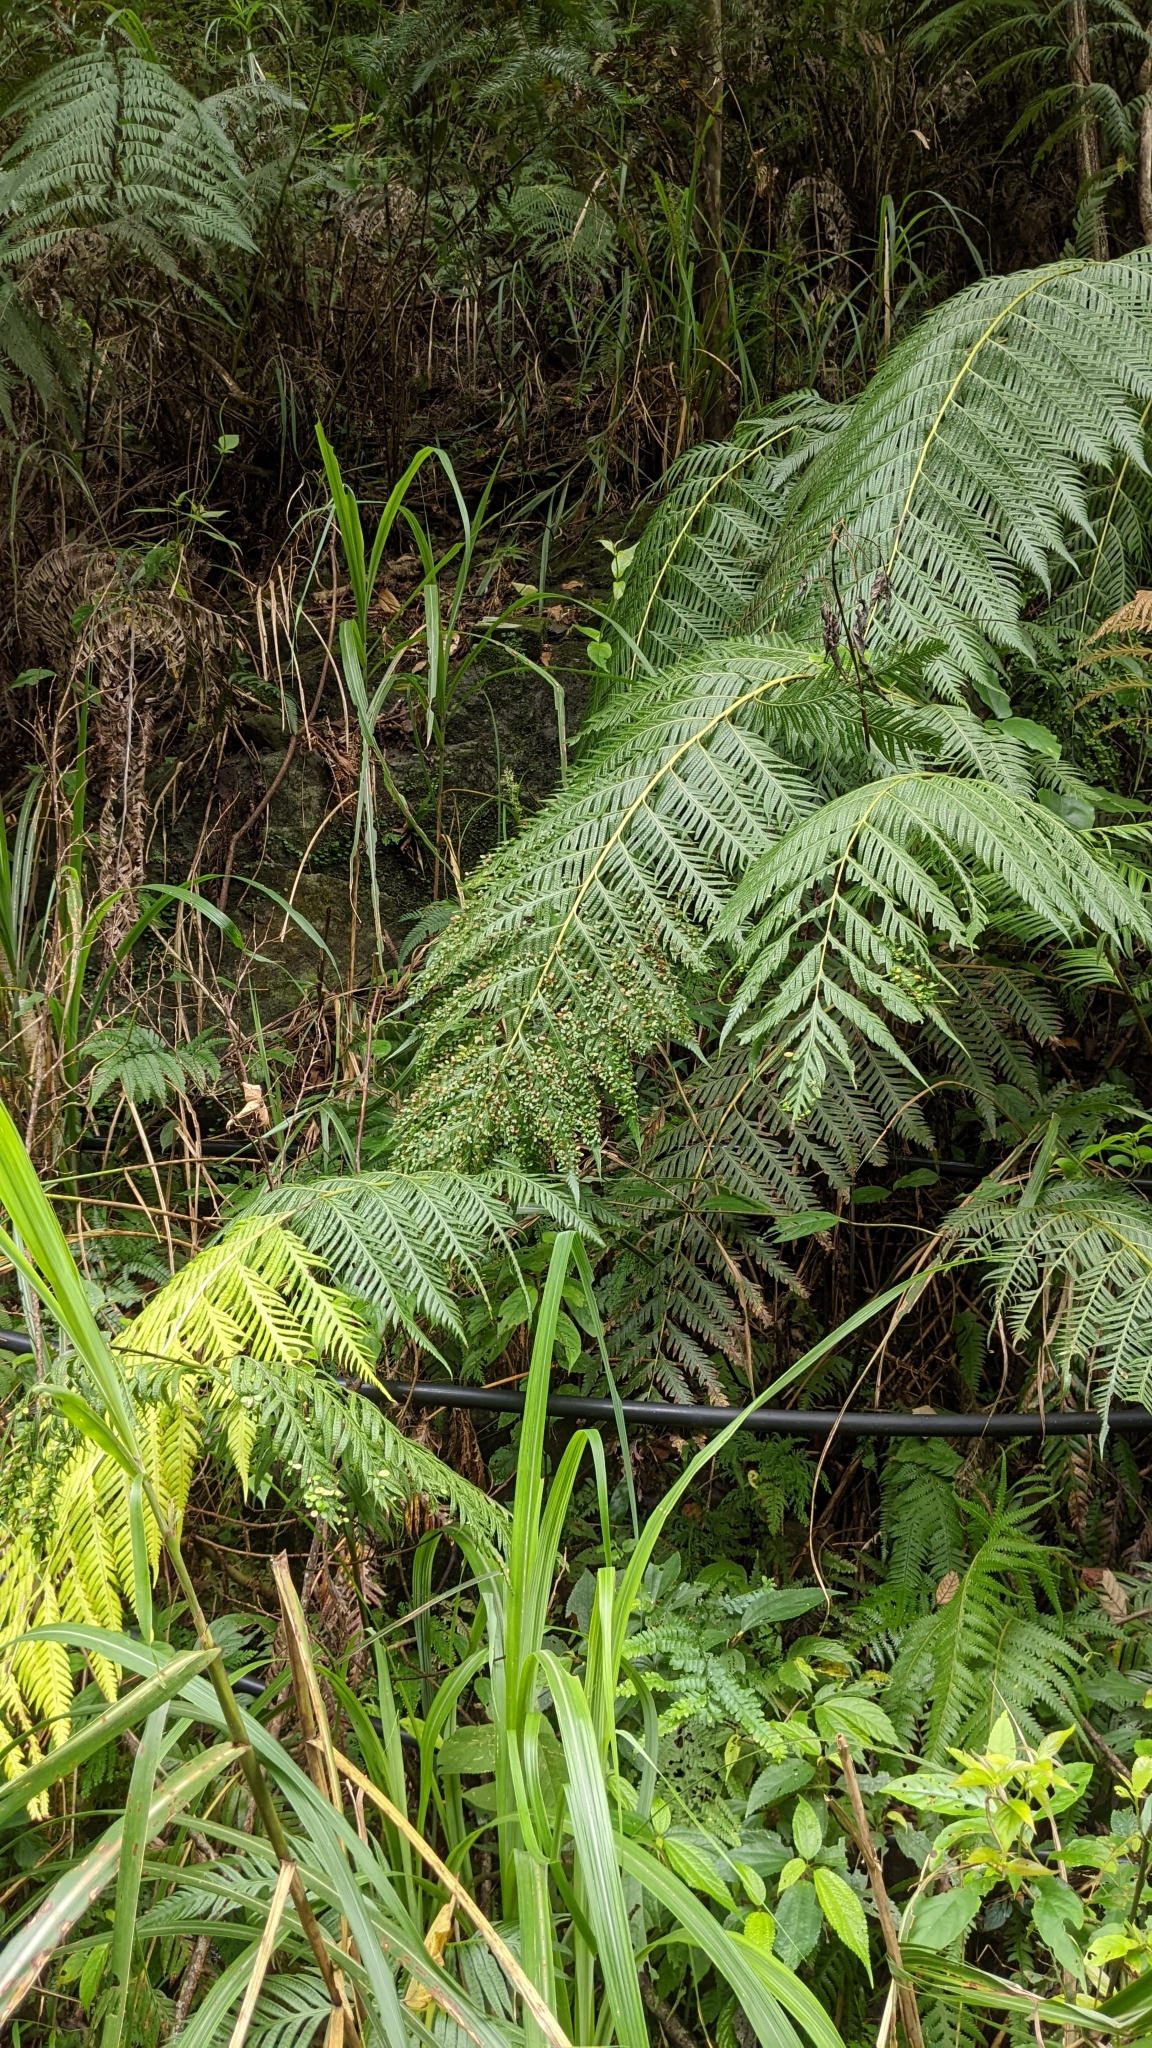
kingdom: Plantae
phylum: Tracheophyta
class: Polypodiopsida
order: Polypodiales
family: Blechnaceae
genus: Woodwardia
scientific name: Woodwardia prolifera
